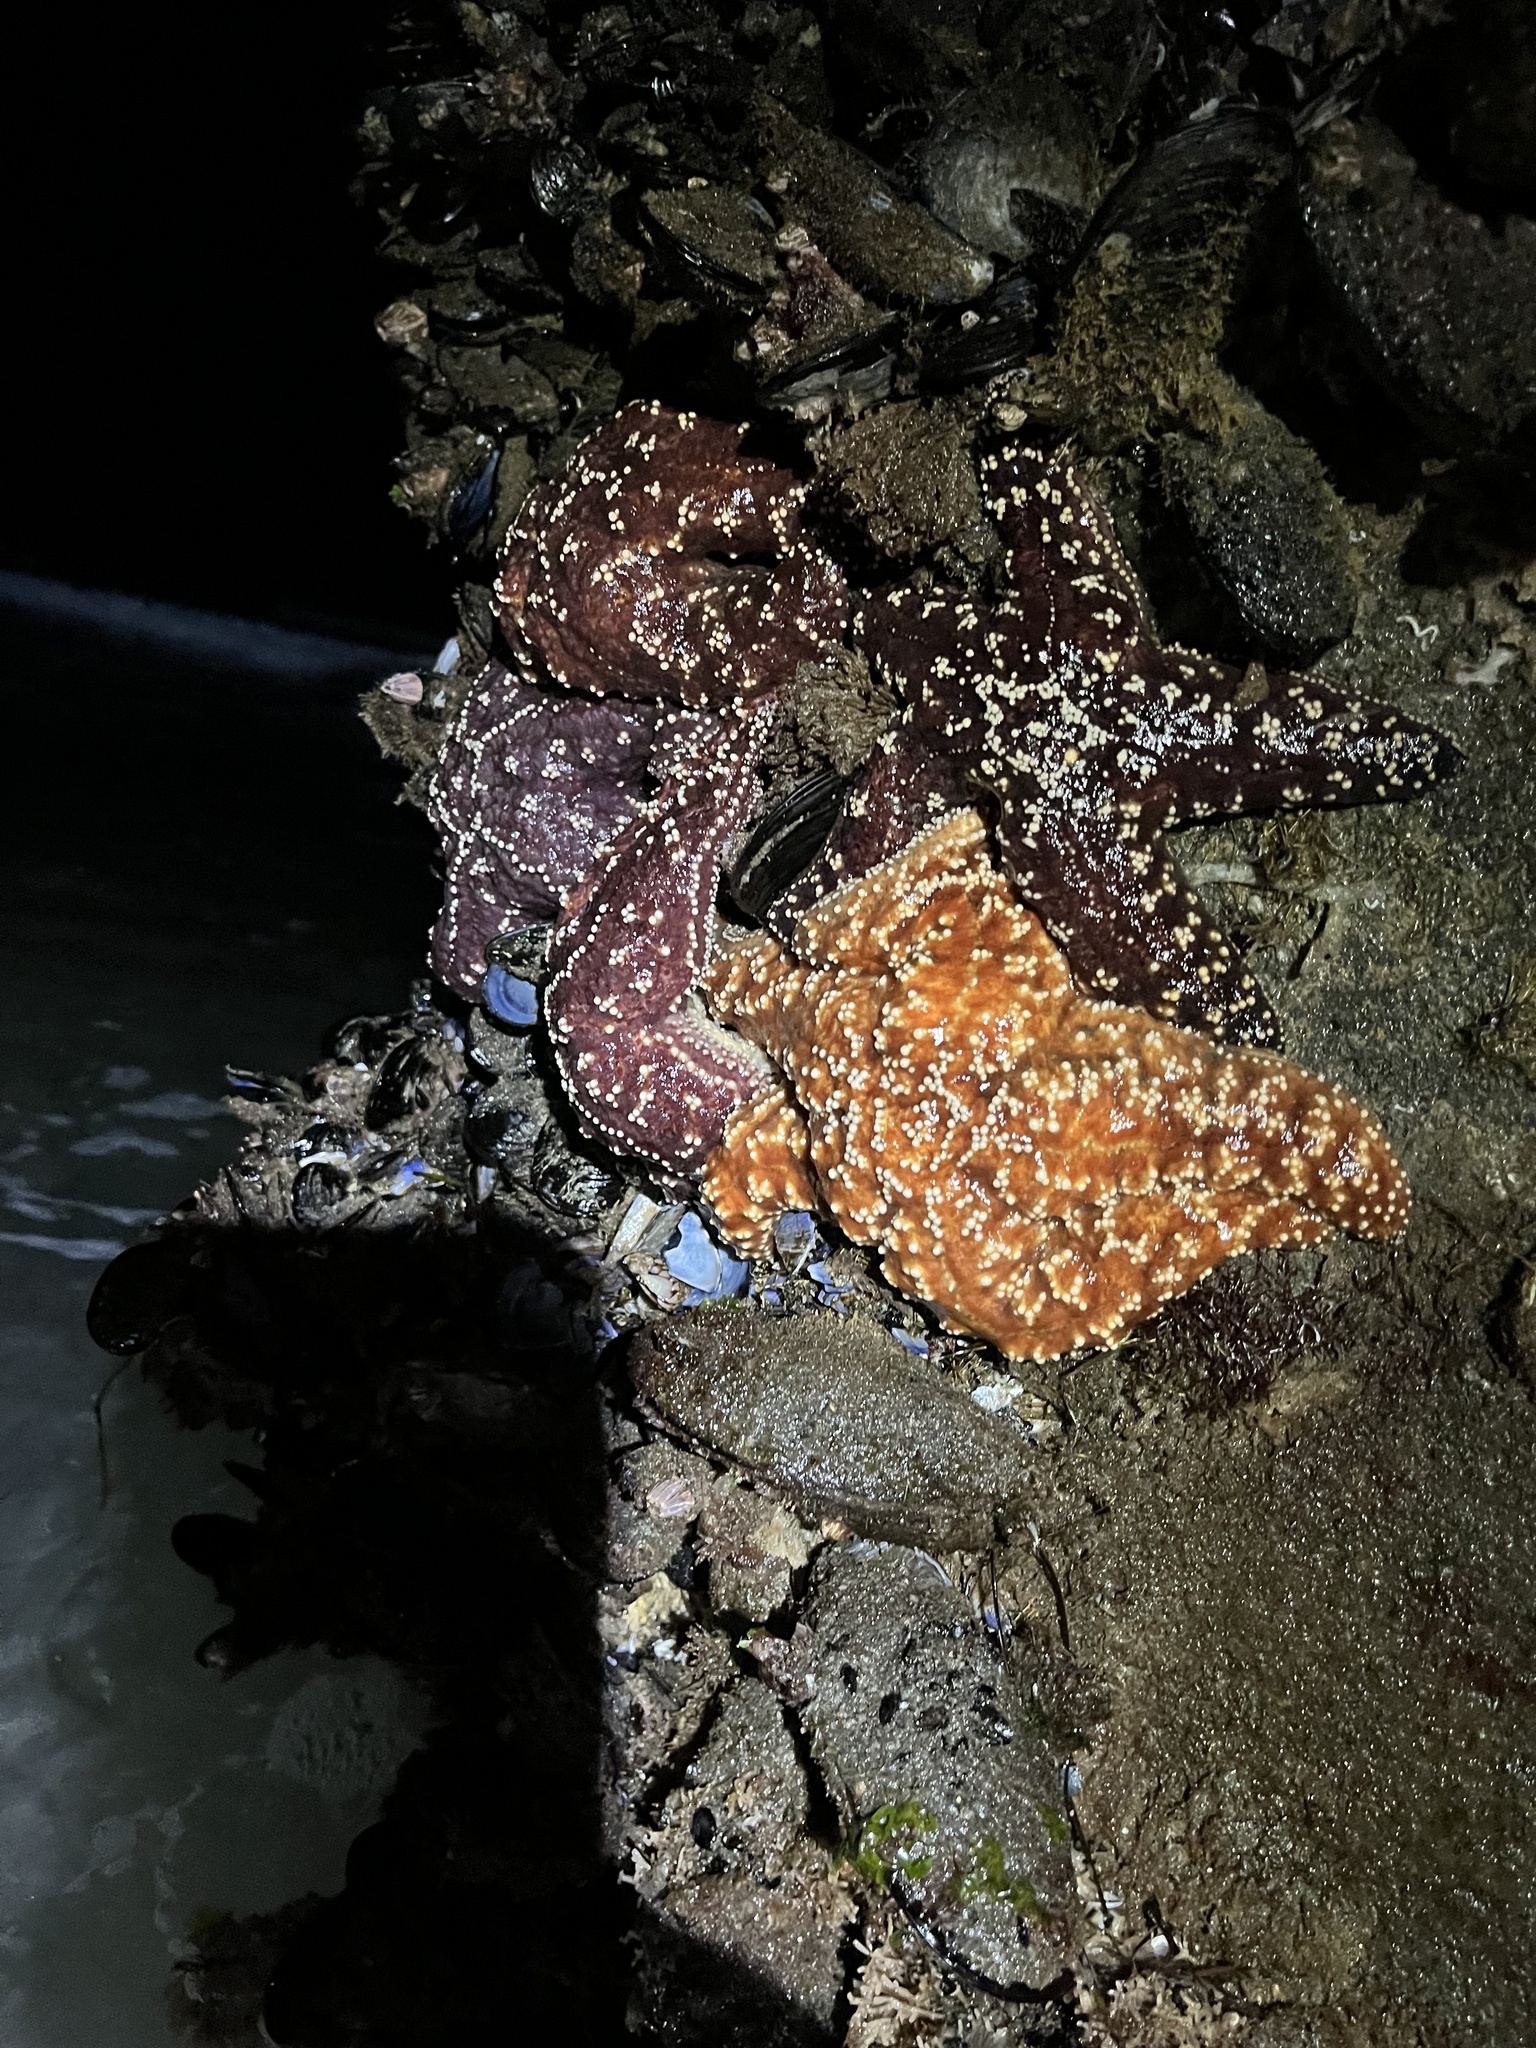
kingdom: Animalia
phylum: Echinodermata
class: Asteroidea
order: Forcipulatida
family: Asteriidae
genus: Pisaster
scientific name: Pisaster ochraceus
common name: Ochre stars
